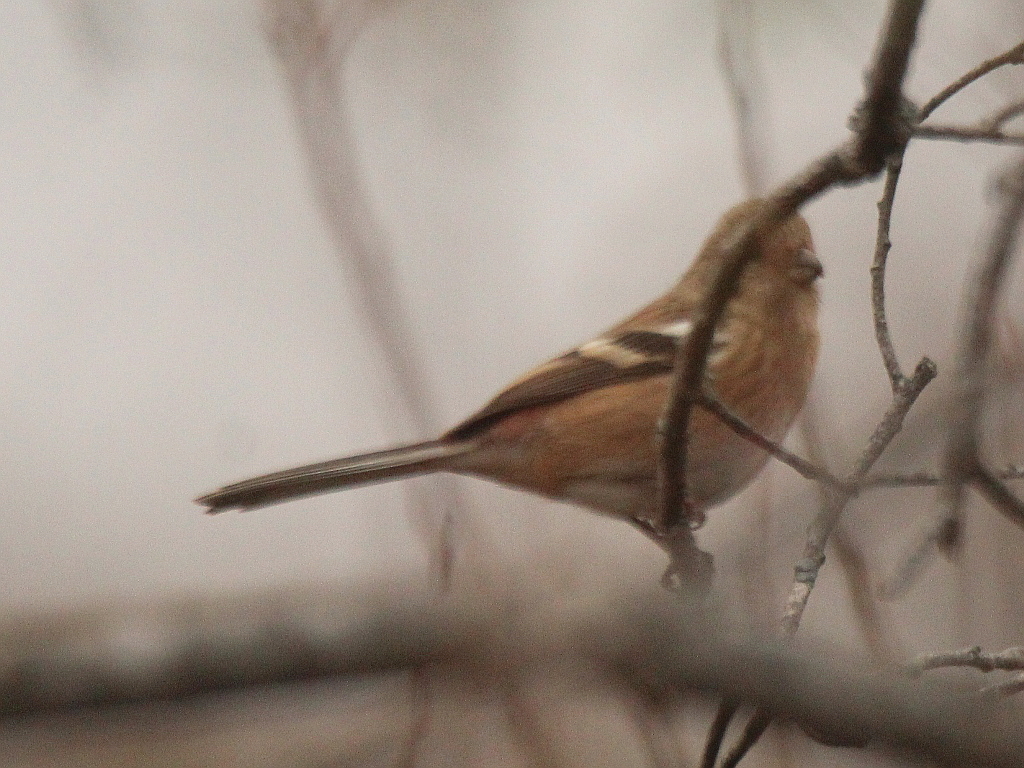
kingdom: Animalia
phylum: Chordata
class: Aves
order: Passeriformes
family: Fringillidae
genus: Carpodacus
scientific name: Carpodacus sibiricus
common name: Long-tailed rosefinch
